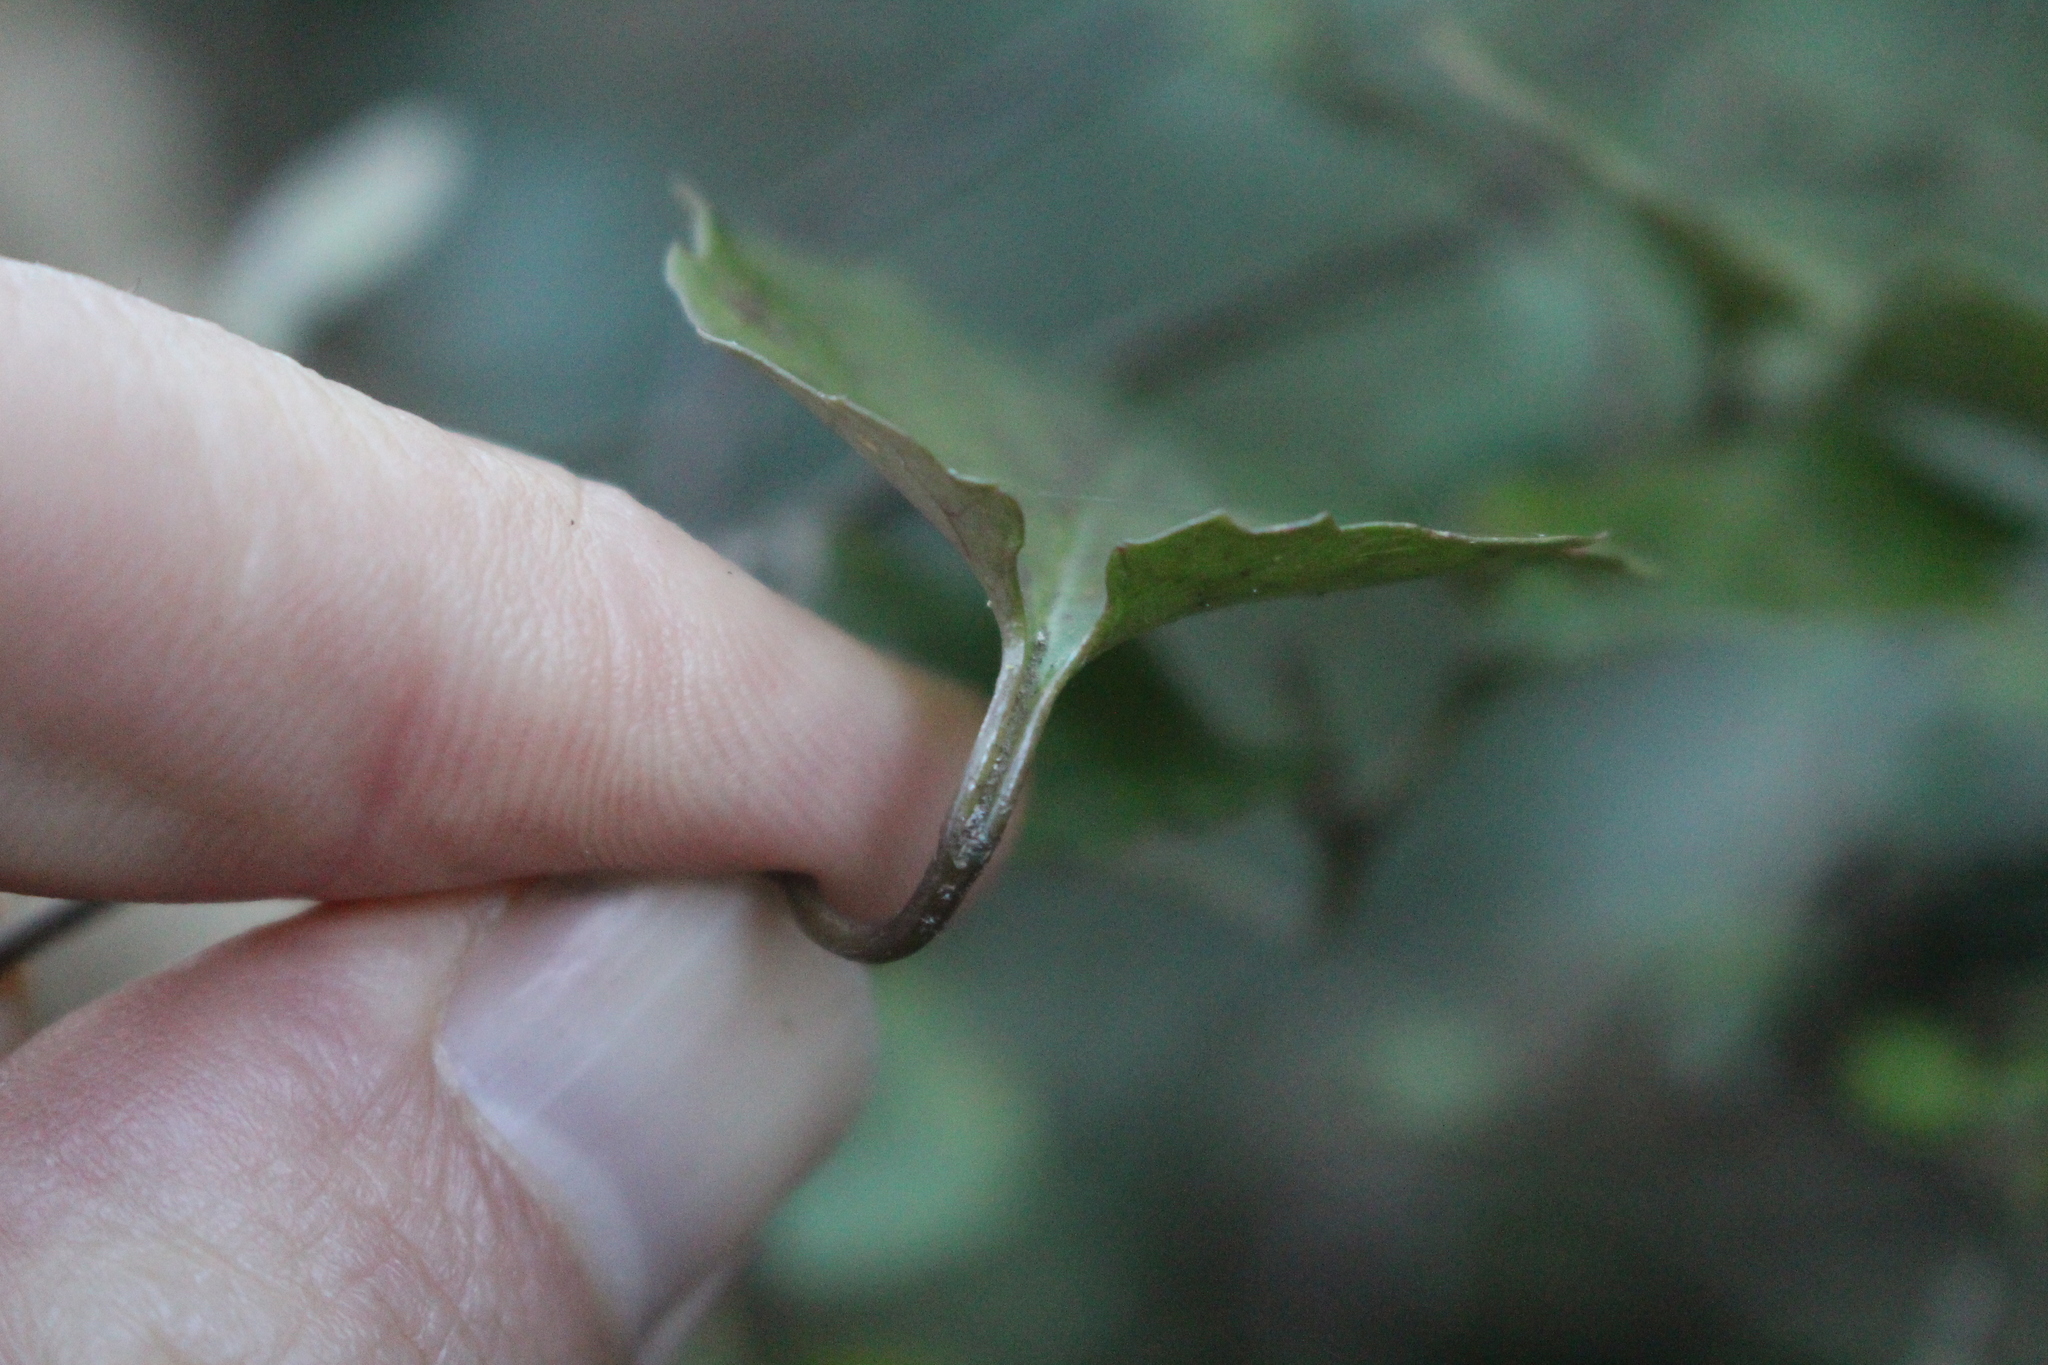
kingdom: Plantae
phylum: Tracheophyta
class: Magnoliopsida
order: Ranunculales
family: Ranunculaceae
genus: Clematis
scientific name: Clematis forsteri
